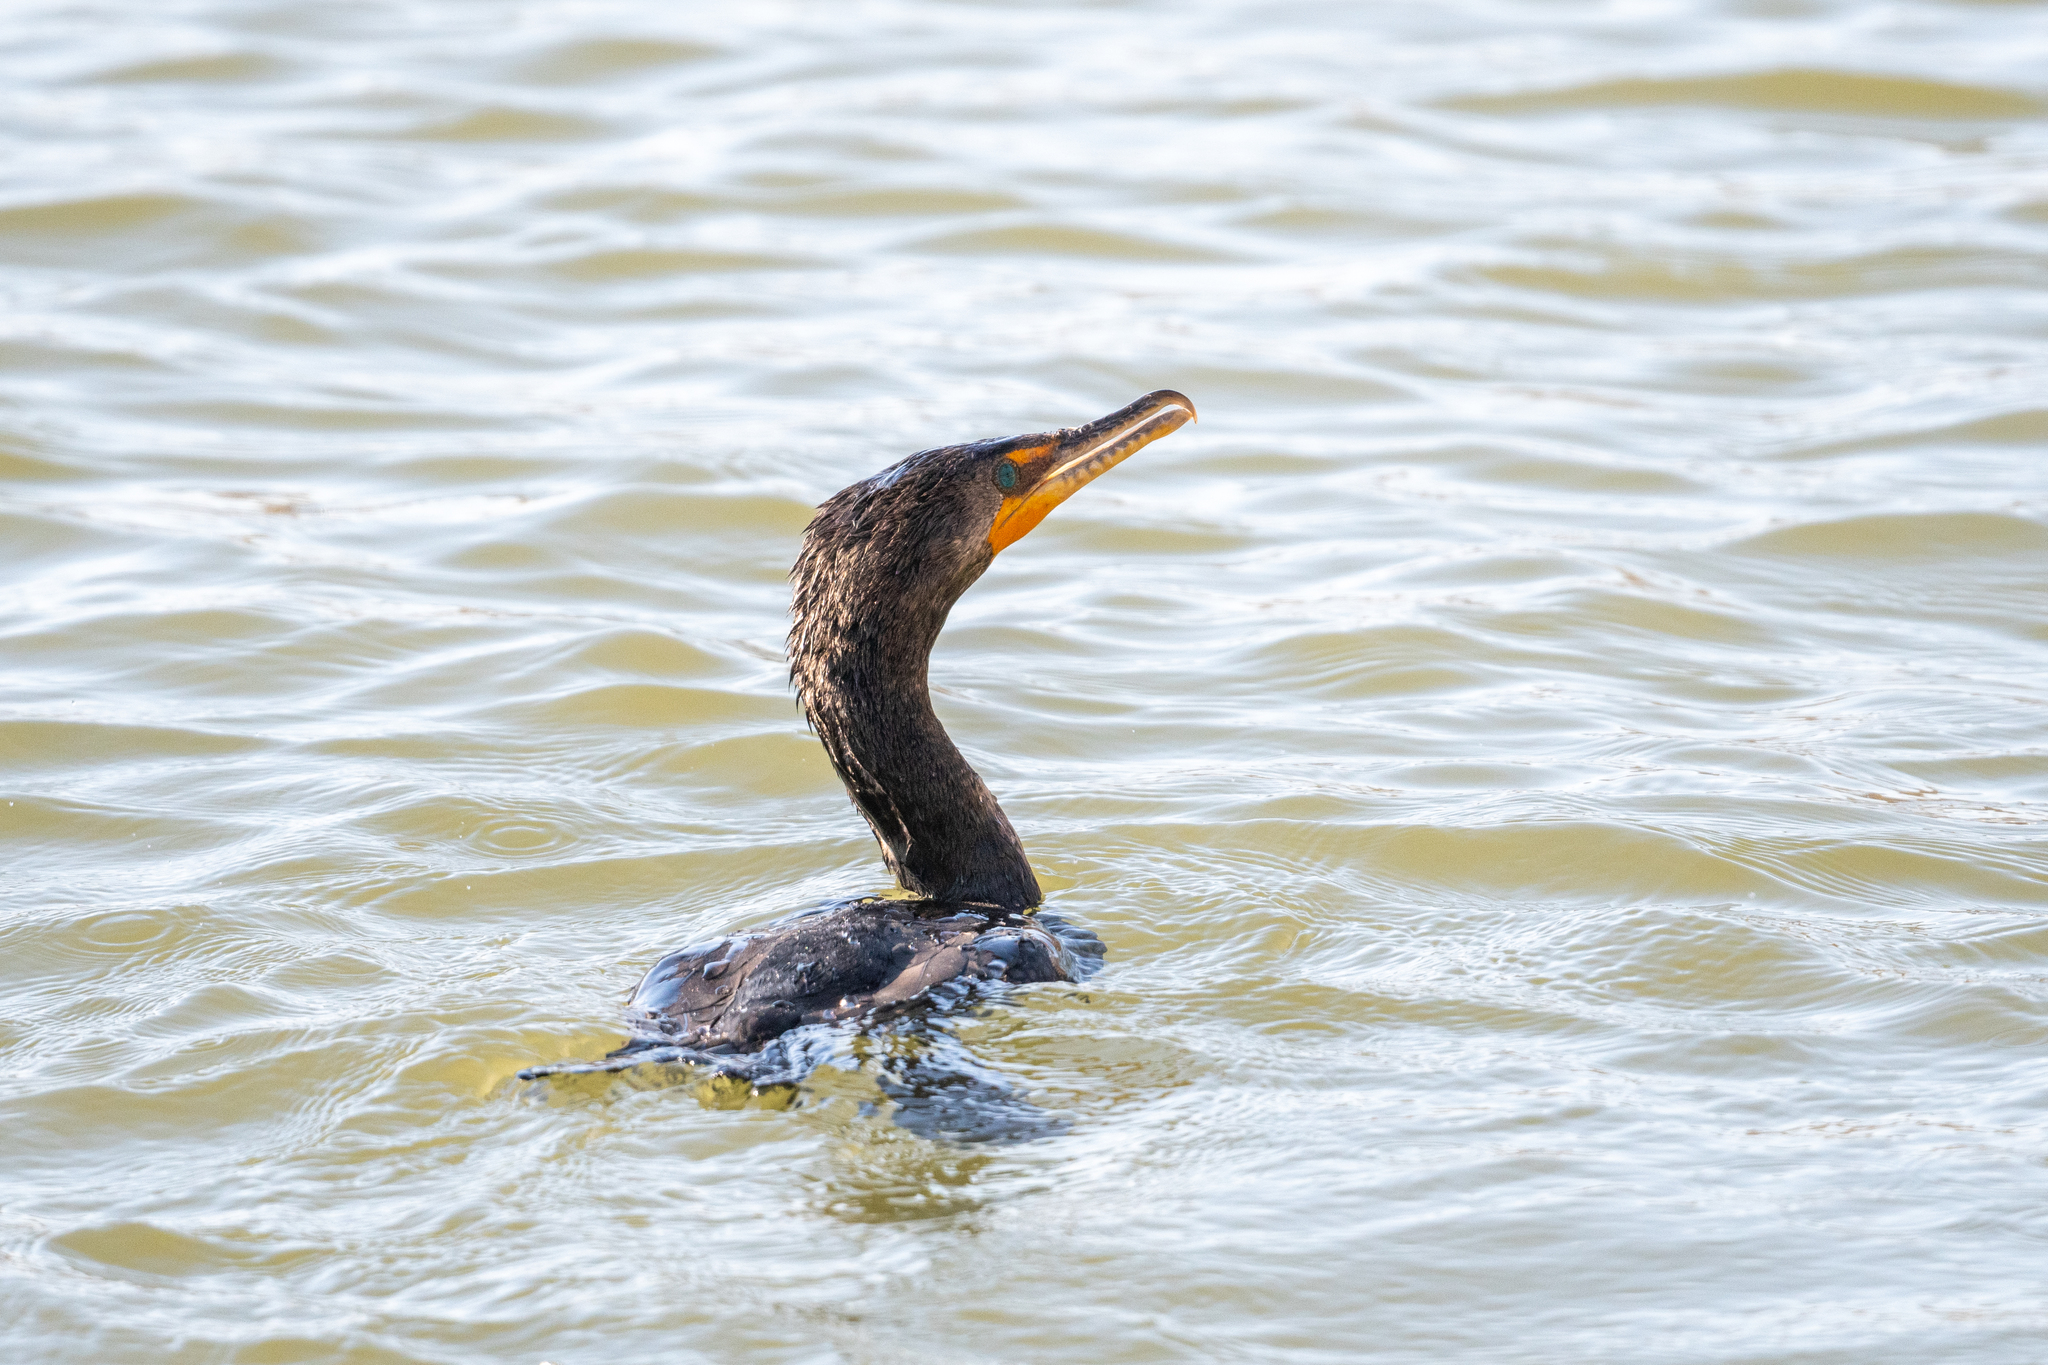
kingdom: Animalia
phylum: Chordata
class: Aves
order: Suliformes
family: Phalacrocoracidae
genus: Phalacrocorax
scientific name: Phalacrocorax auritus
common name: Double-crested cormorant
